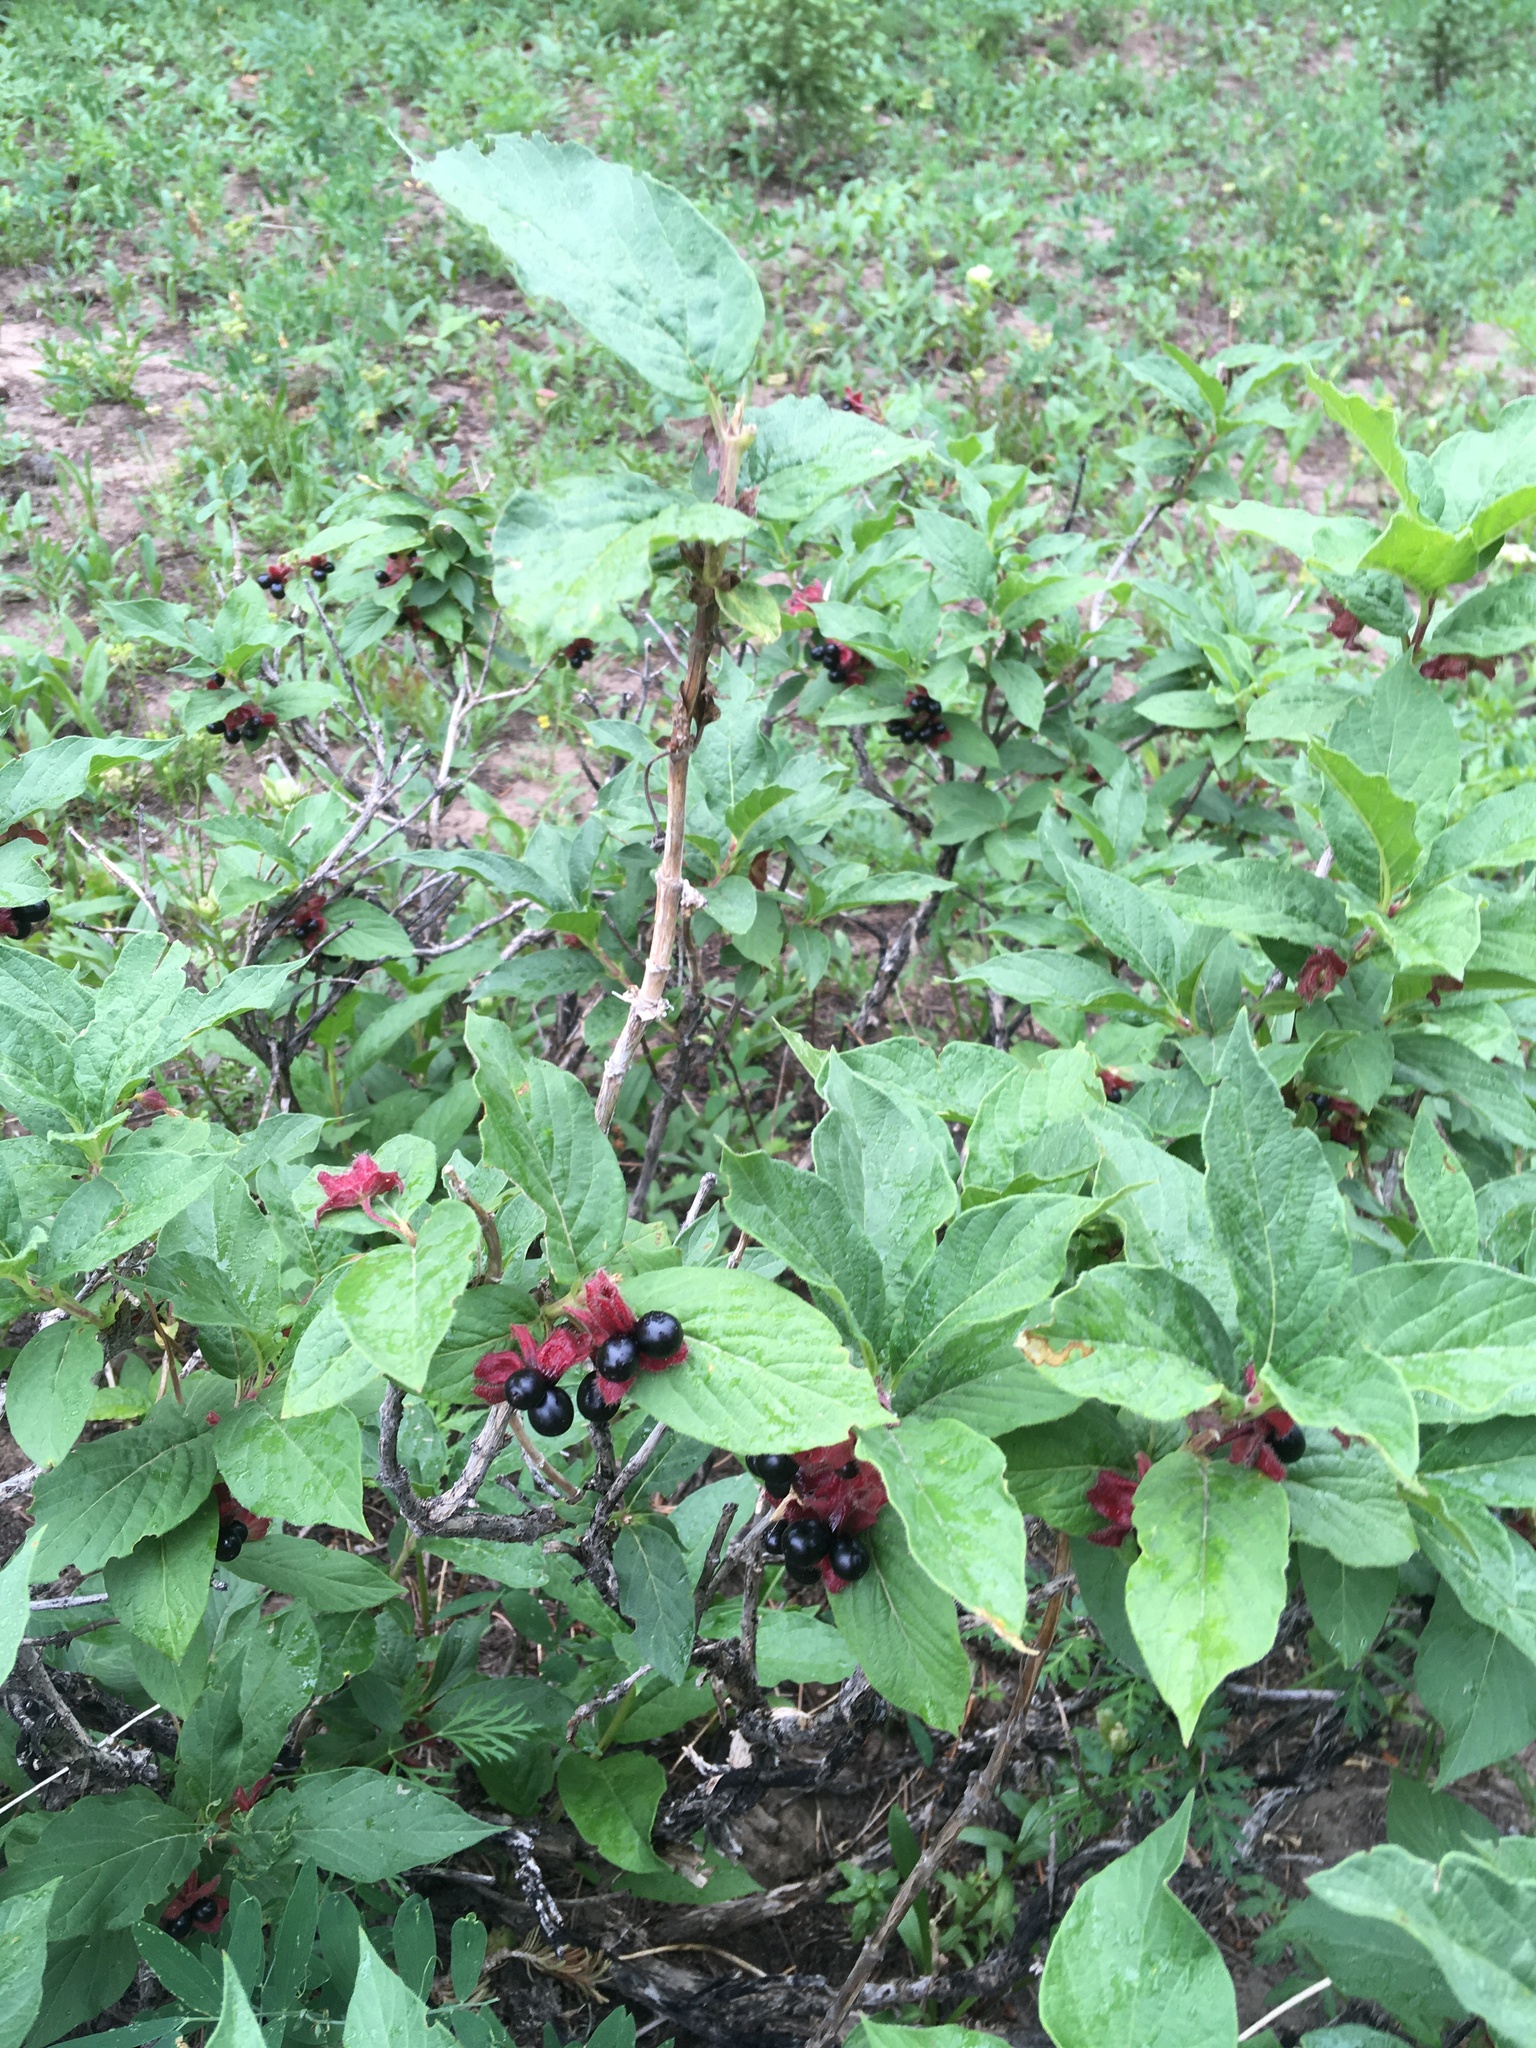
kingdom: Plantae
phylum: Tracheophyta
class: Magnoliopsida
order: Dipsacales
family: Caprifoliaceae
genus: Lonicera
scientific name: Lonicera involucrata
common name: Californian honeysuckle
